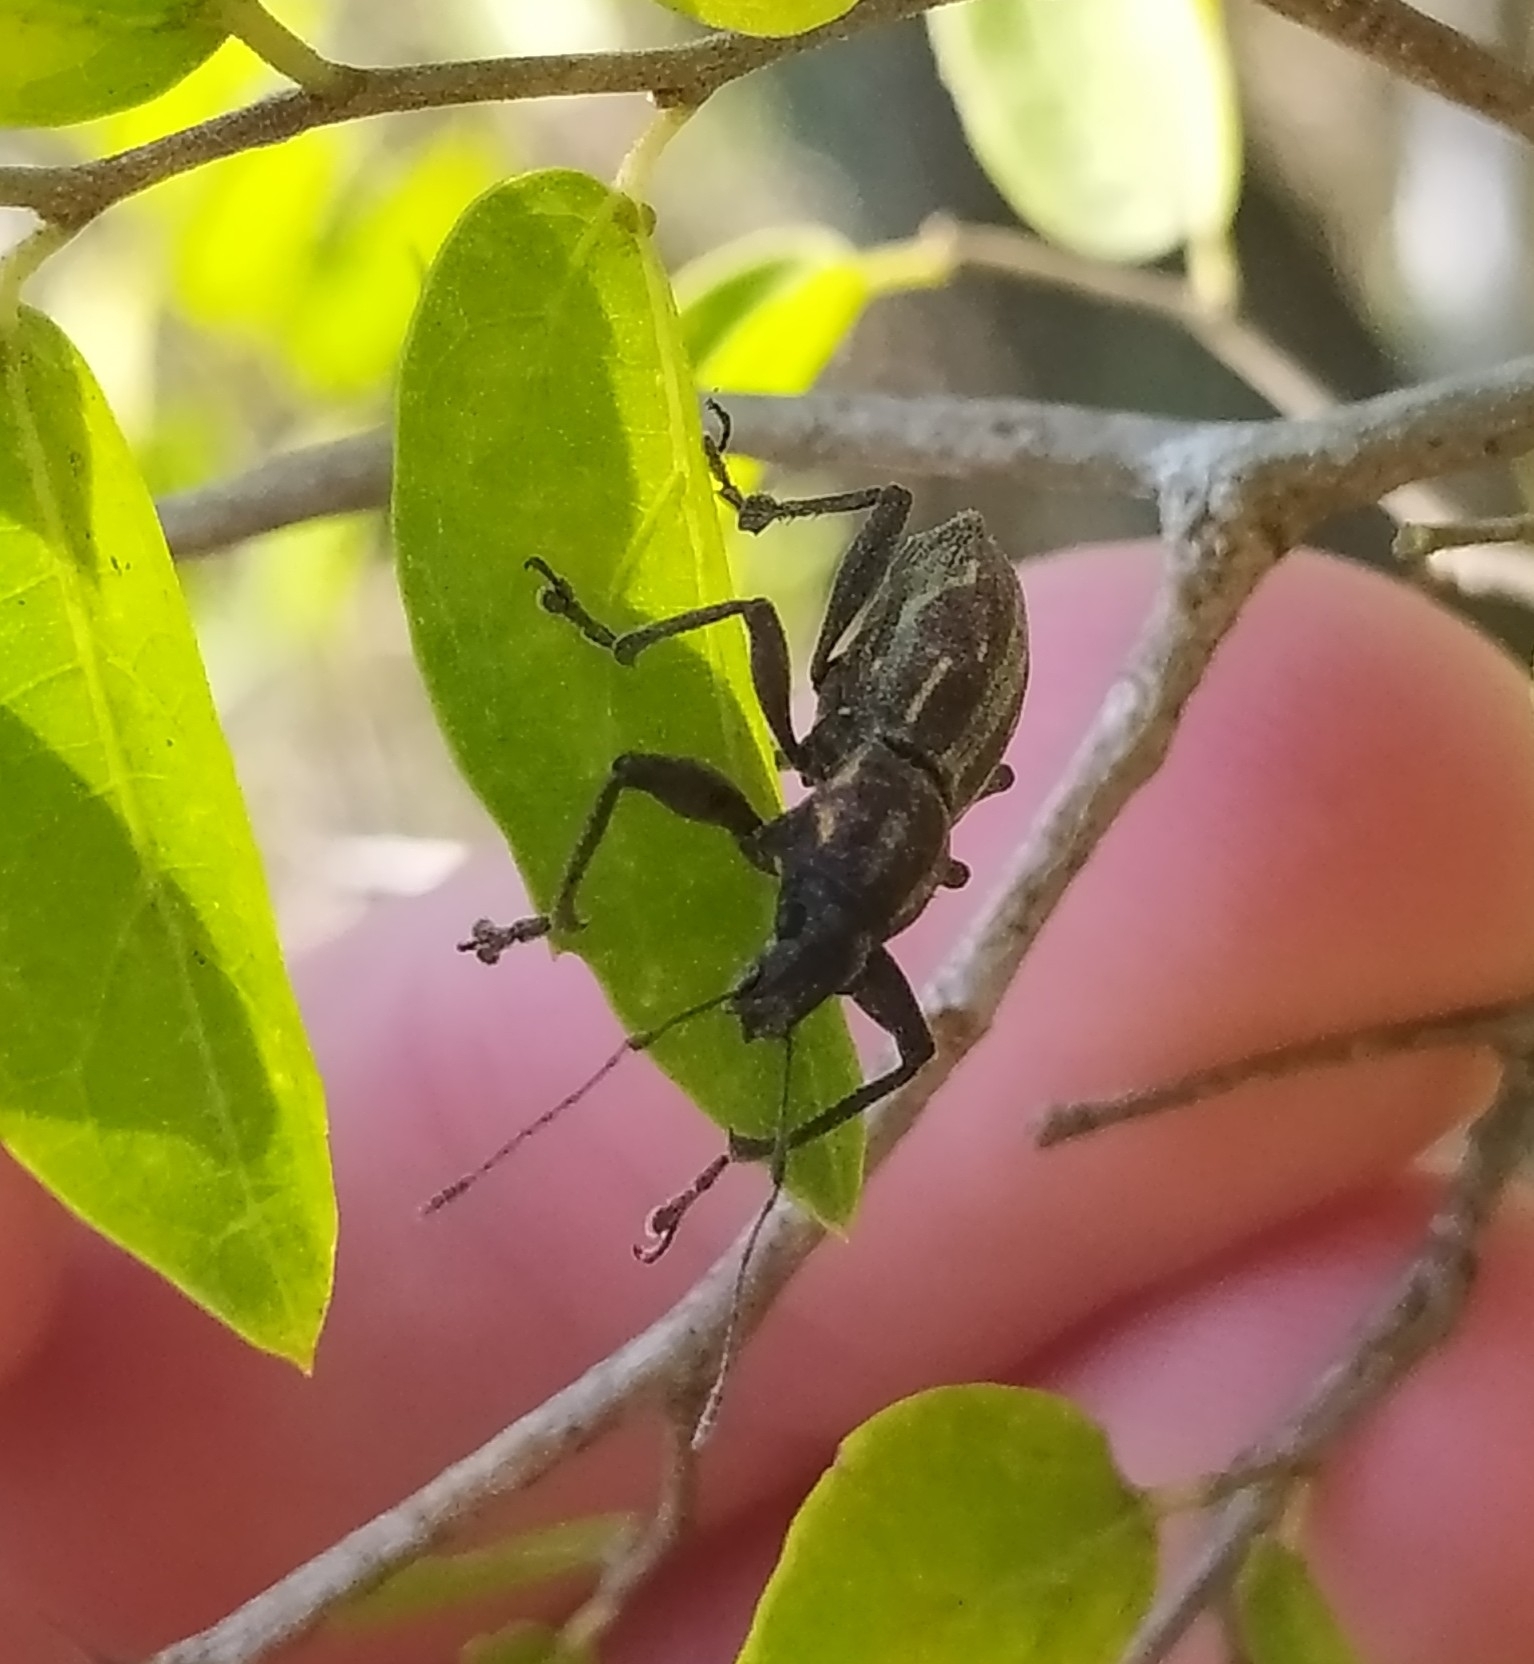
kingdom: Animalia
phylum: Arthropoda
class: Insecta
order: Coleoptera
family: Curculionidae
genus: Naupactus
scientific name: Naupactus xanthographus
